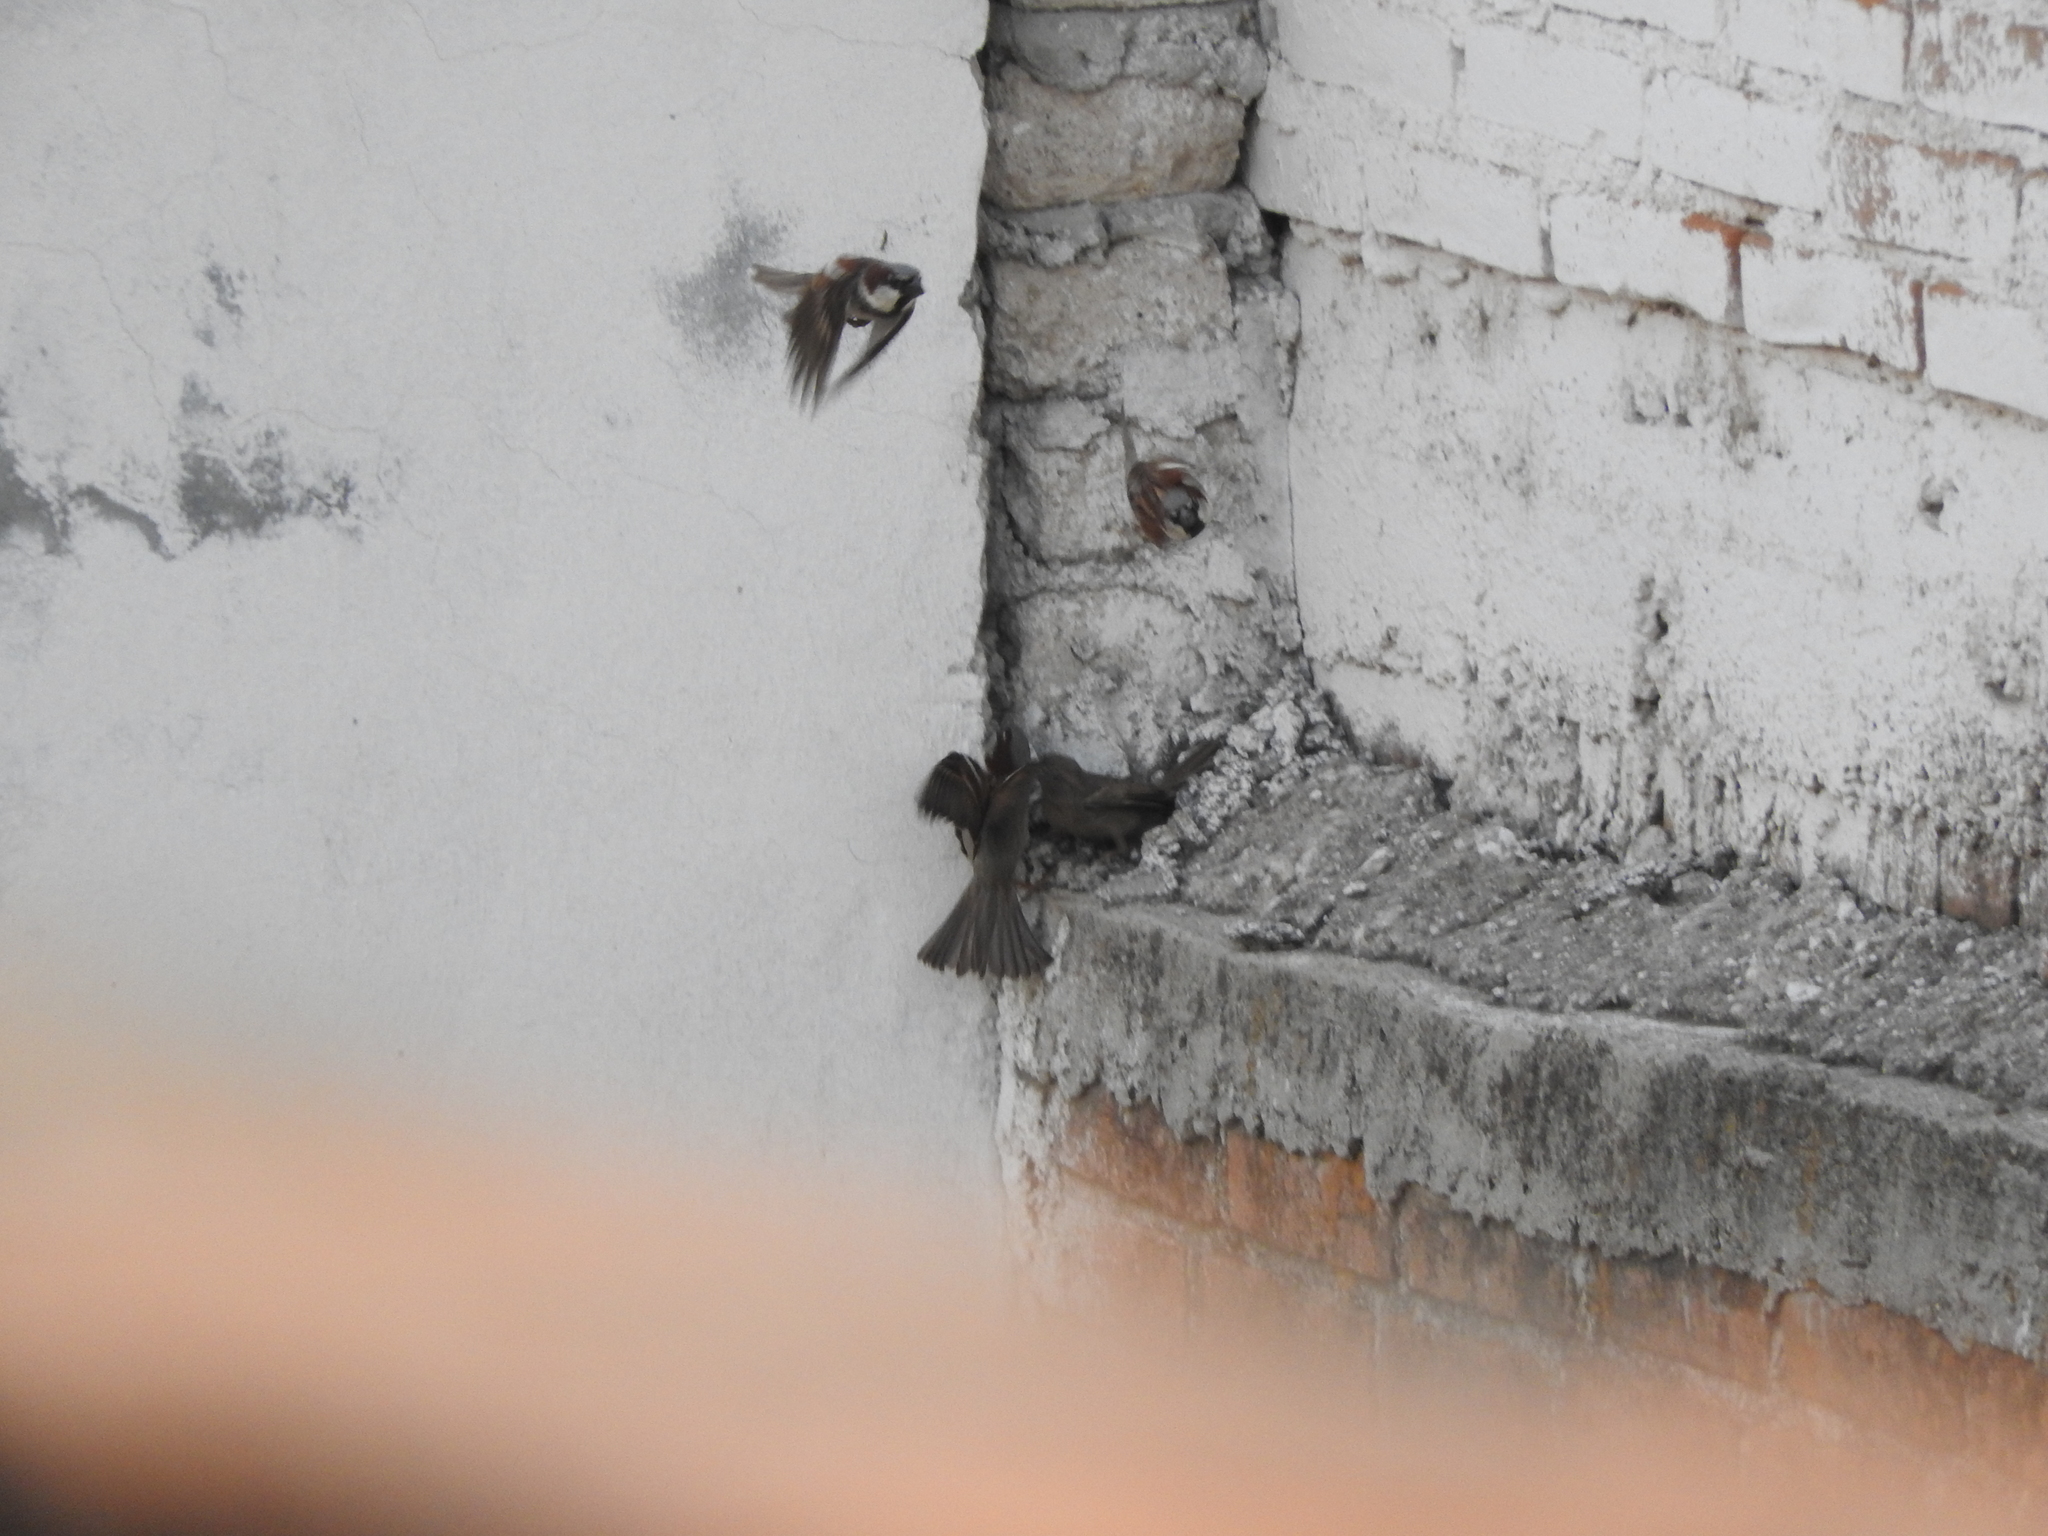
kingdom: Animalia
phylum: Chordata
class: Aves
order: Passeriformes
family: Passeridae
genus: Passer
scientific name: Passer domesticus
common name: House sparrow
